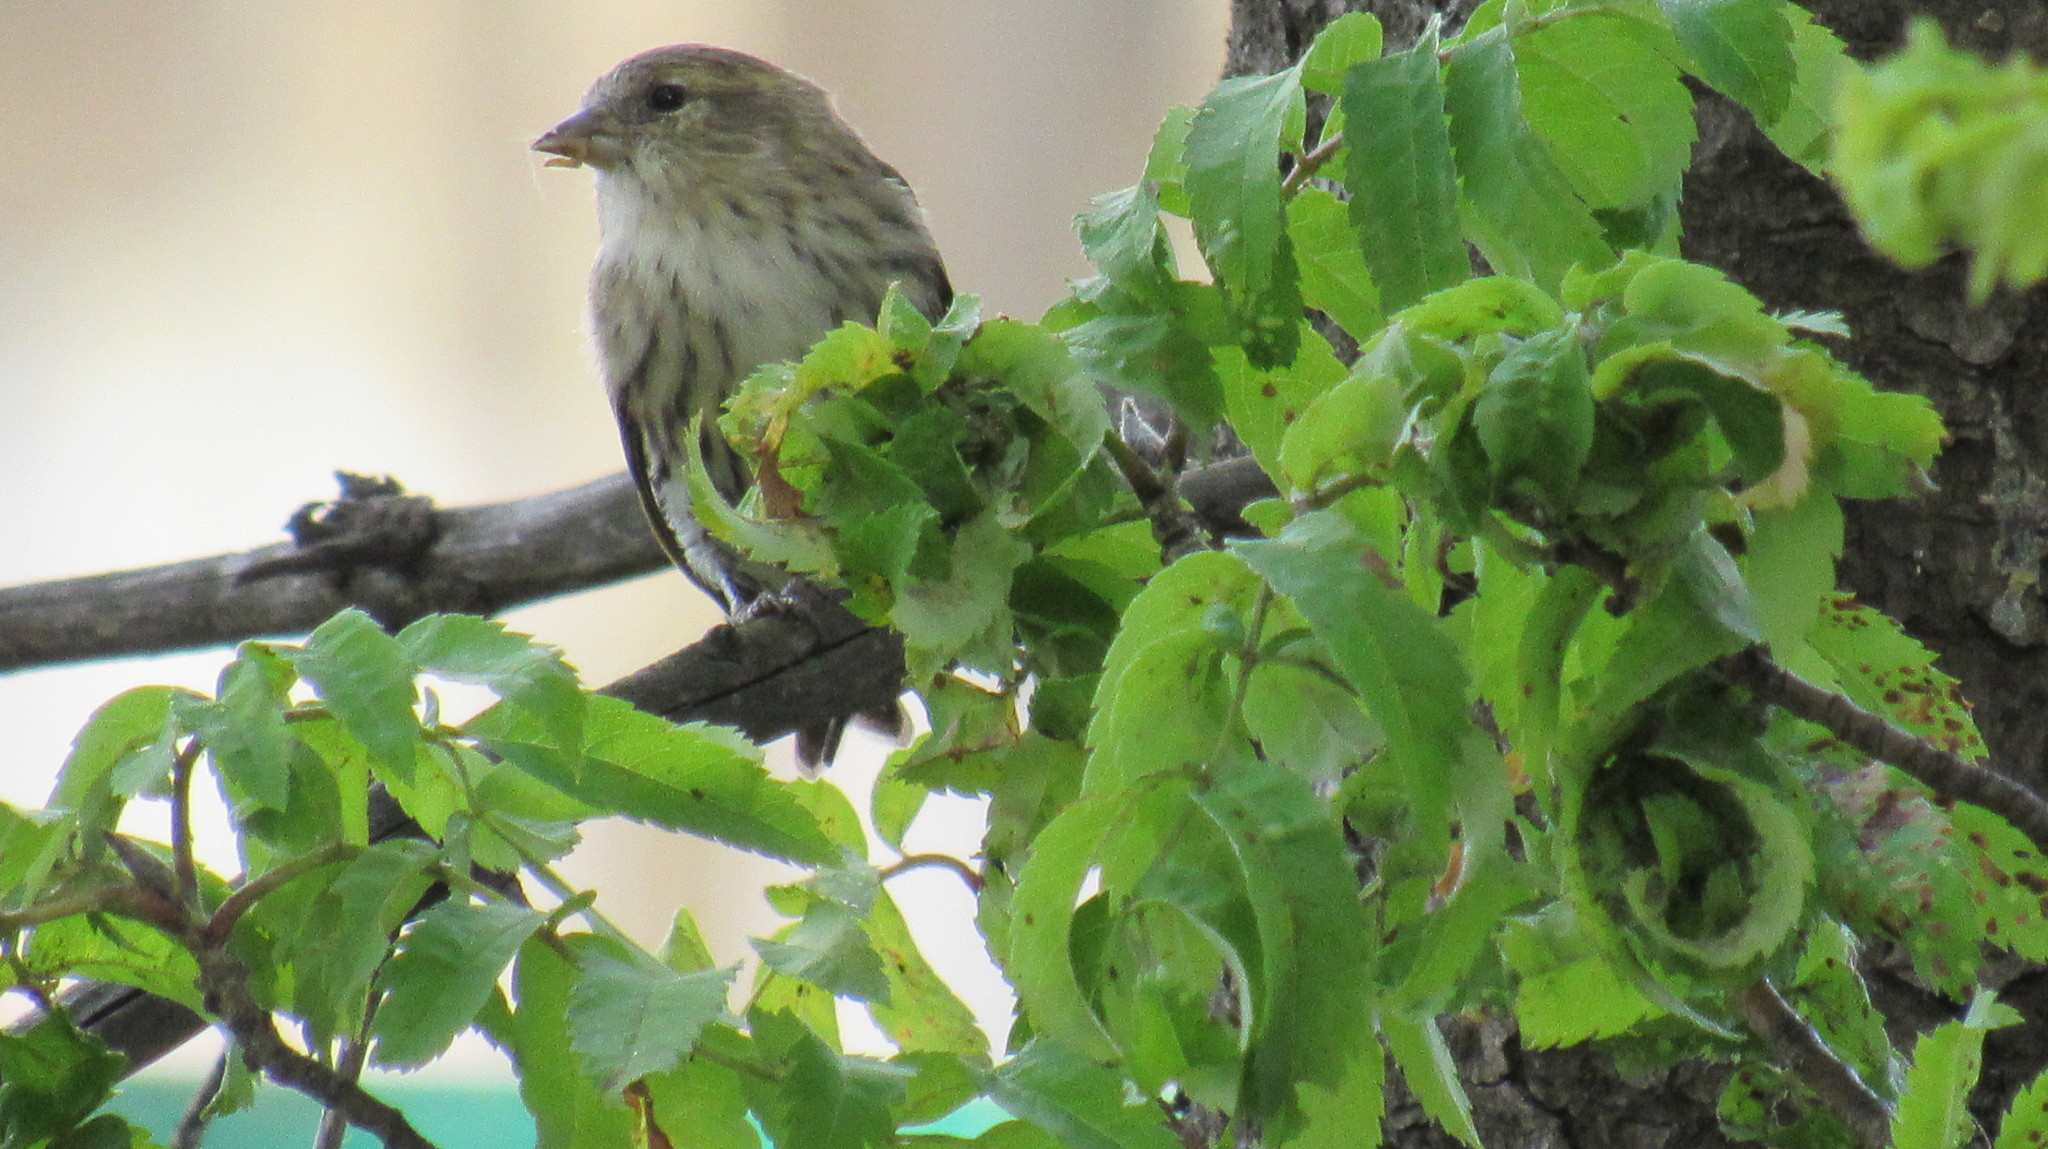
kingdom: Animalia
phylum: Chordata
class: Aves
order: Passeriformes
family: Fringillidae
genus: Spinus
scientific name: Spinus spinus
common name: Eurasian siskin
